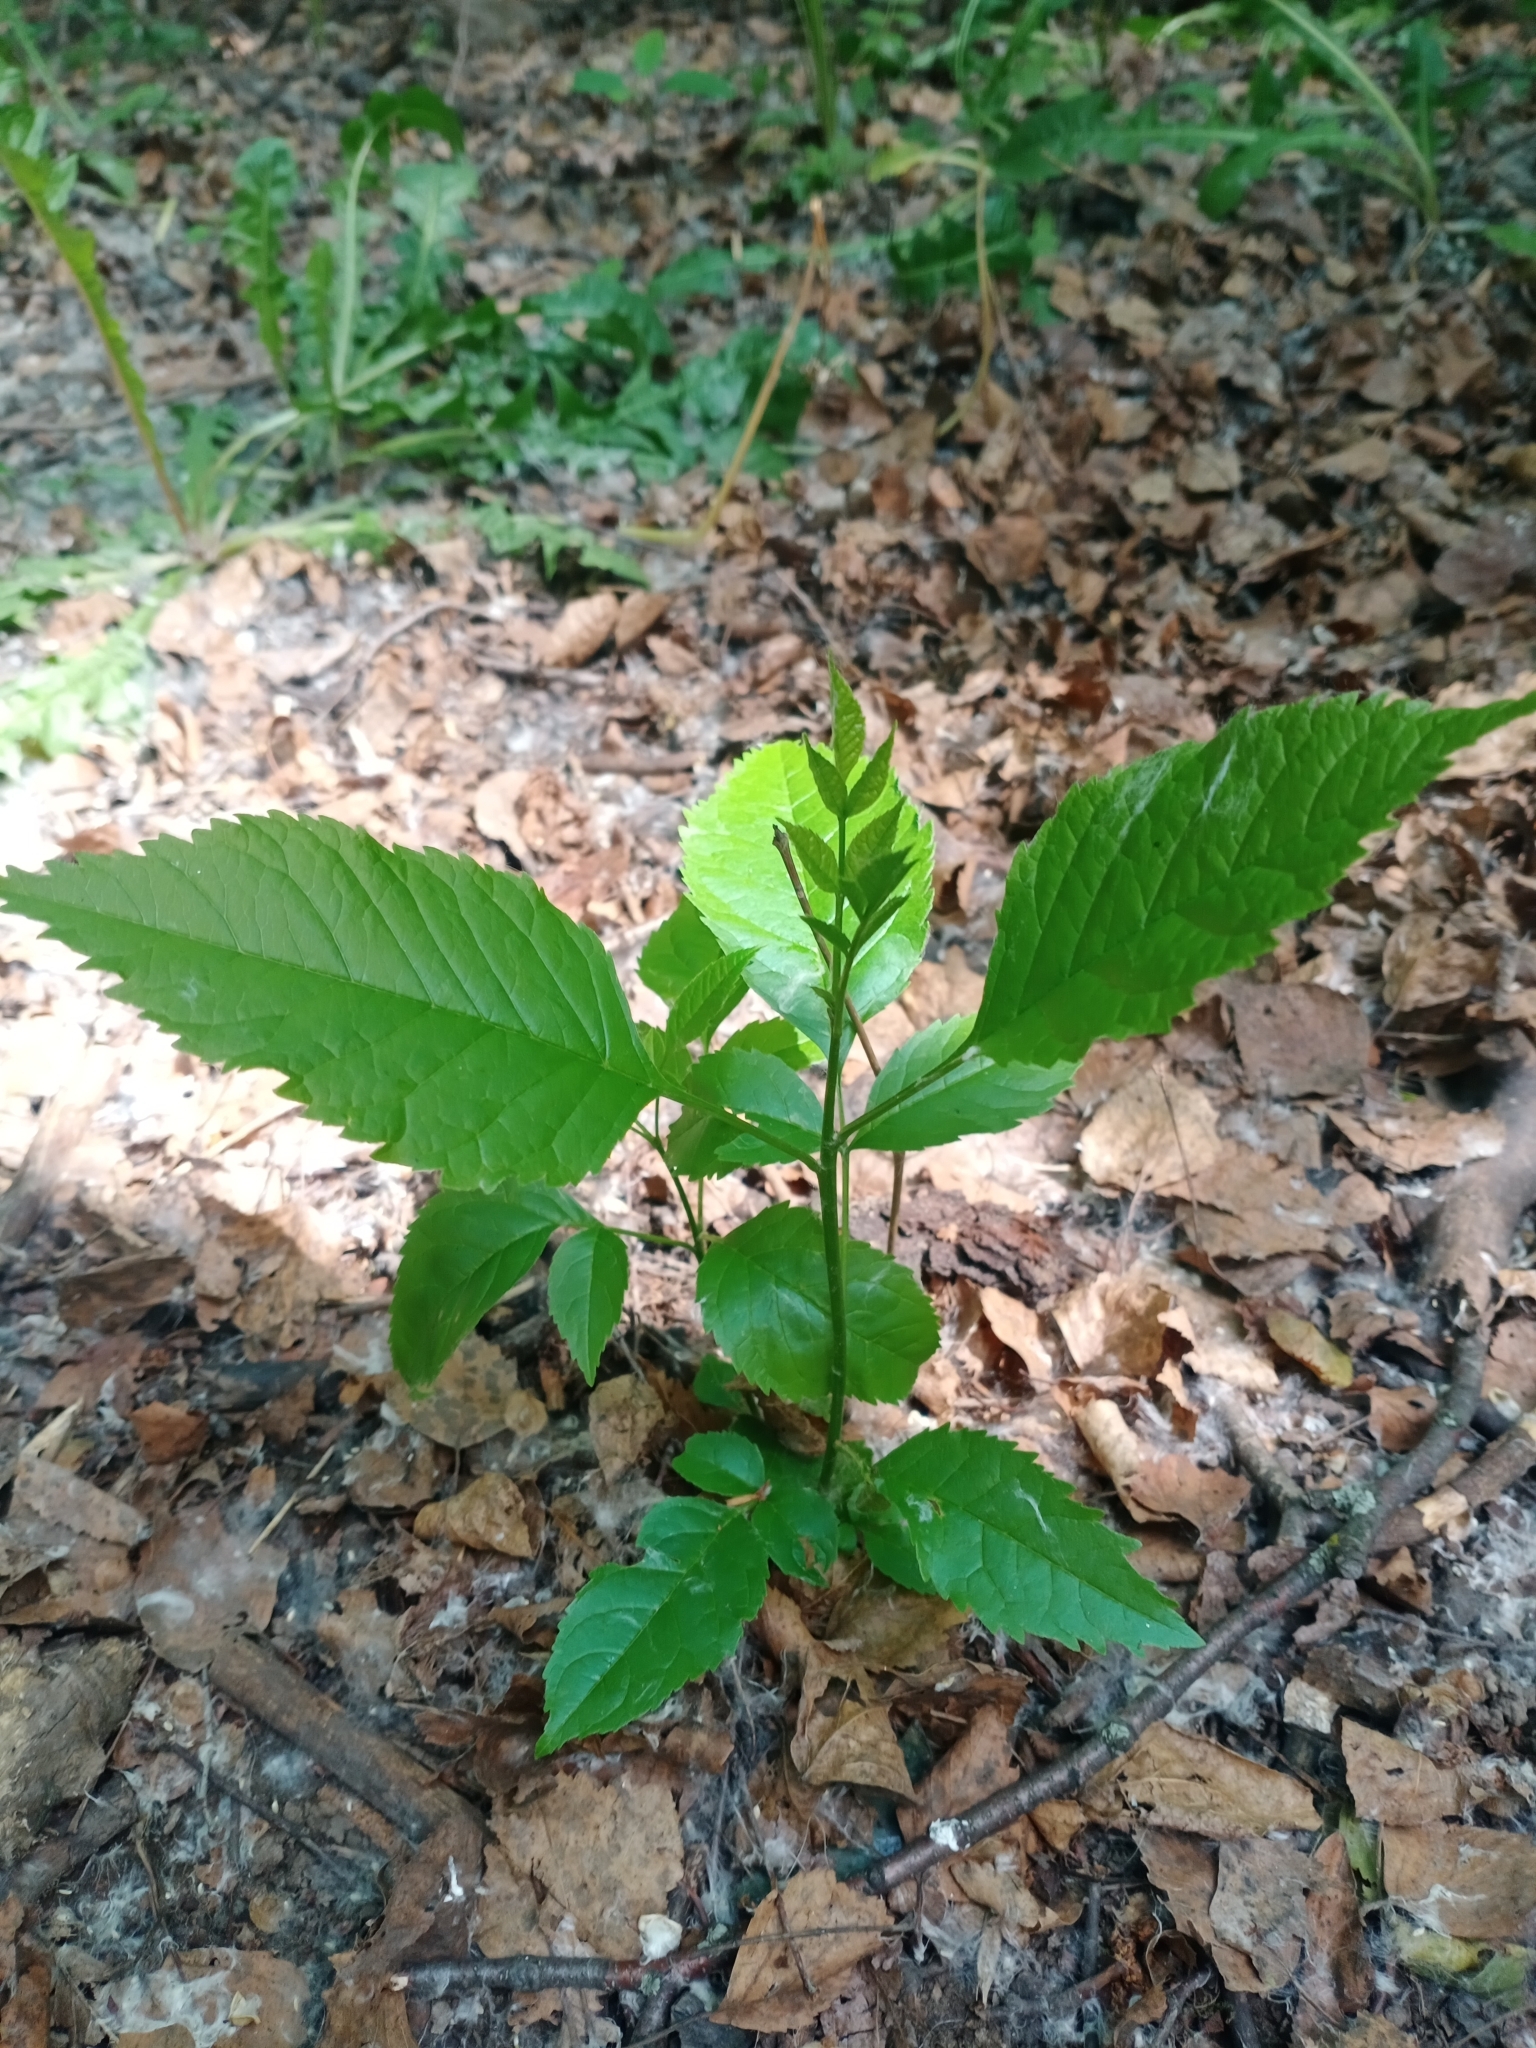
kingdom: Plantae
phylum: Tracheophyta
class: Magnoliopsida
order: Lamiales
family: Oleaceae
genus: Fraxinus
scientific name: Fraxinus pennsylvanica
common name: Green ash
